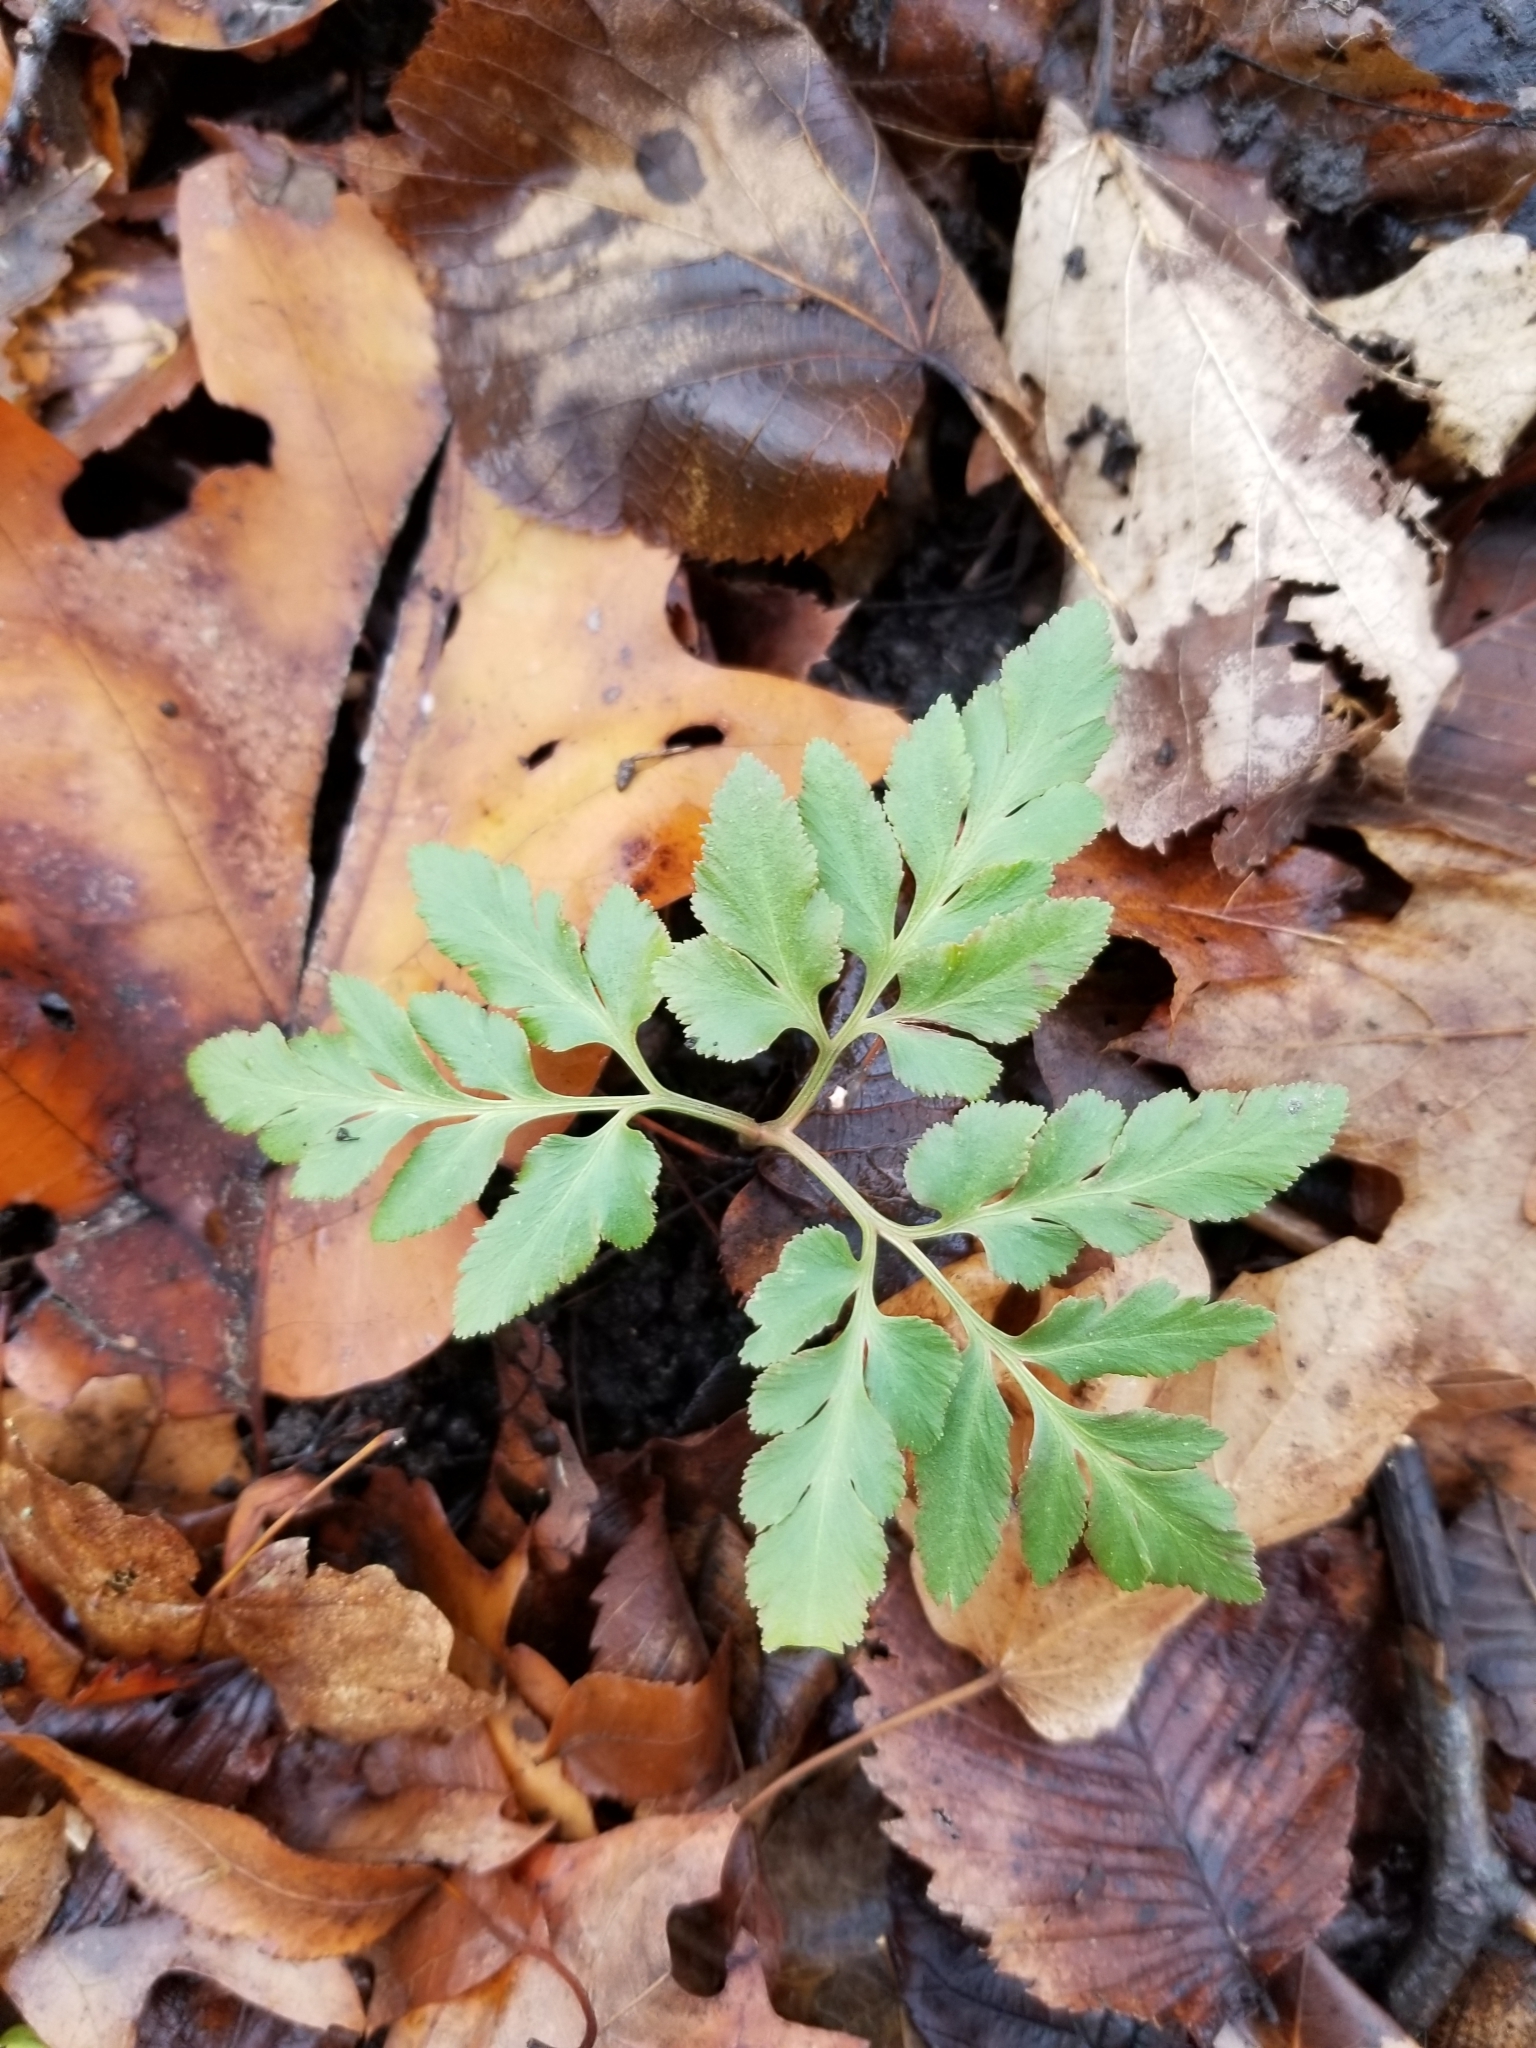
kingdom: Plantae
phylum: Tracheophyta
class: Polypodiopsida
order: Ophioglossales
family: Ophioglossaceae
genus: Sceptridium
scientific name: Sceptridium dissectum
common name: Cut-leaved grapefern
